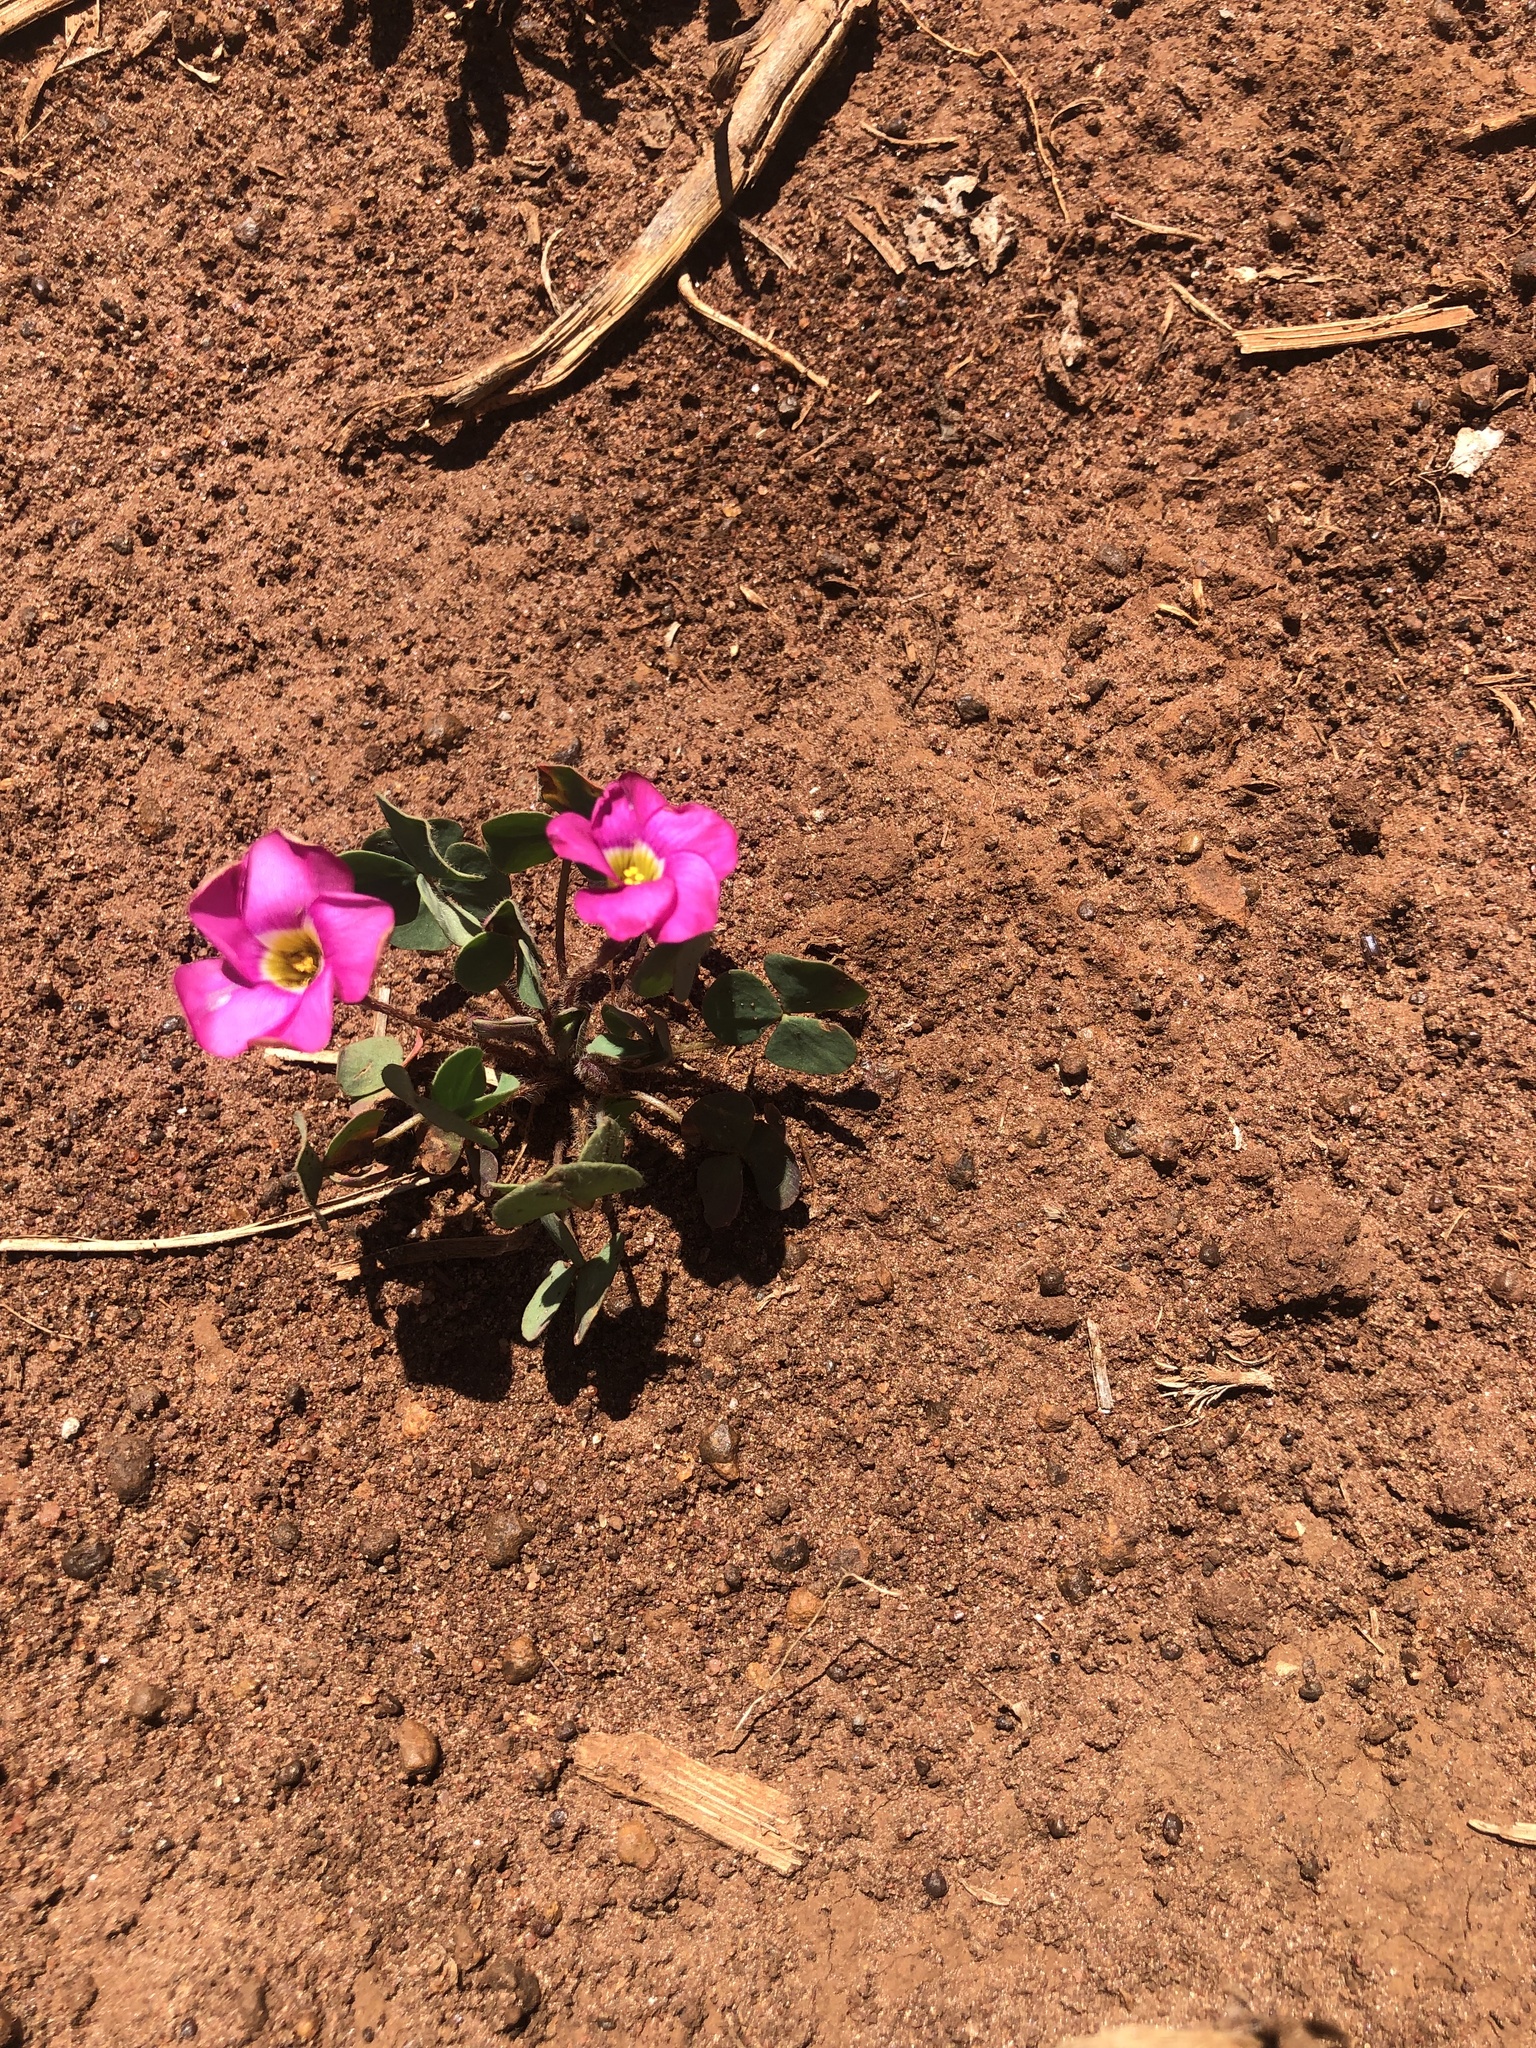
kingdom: Plantae
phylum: Tracheophyta
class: Magnoliopsida
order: Oxalidales
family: Oxalidaceae
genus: Oxalis
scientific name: Oxalis obliquifolia
